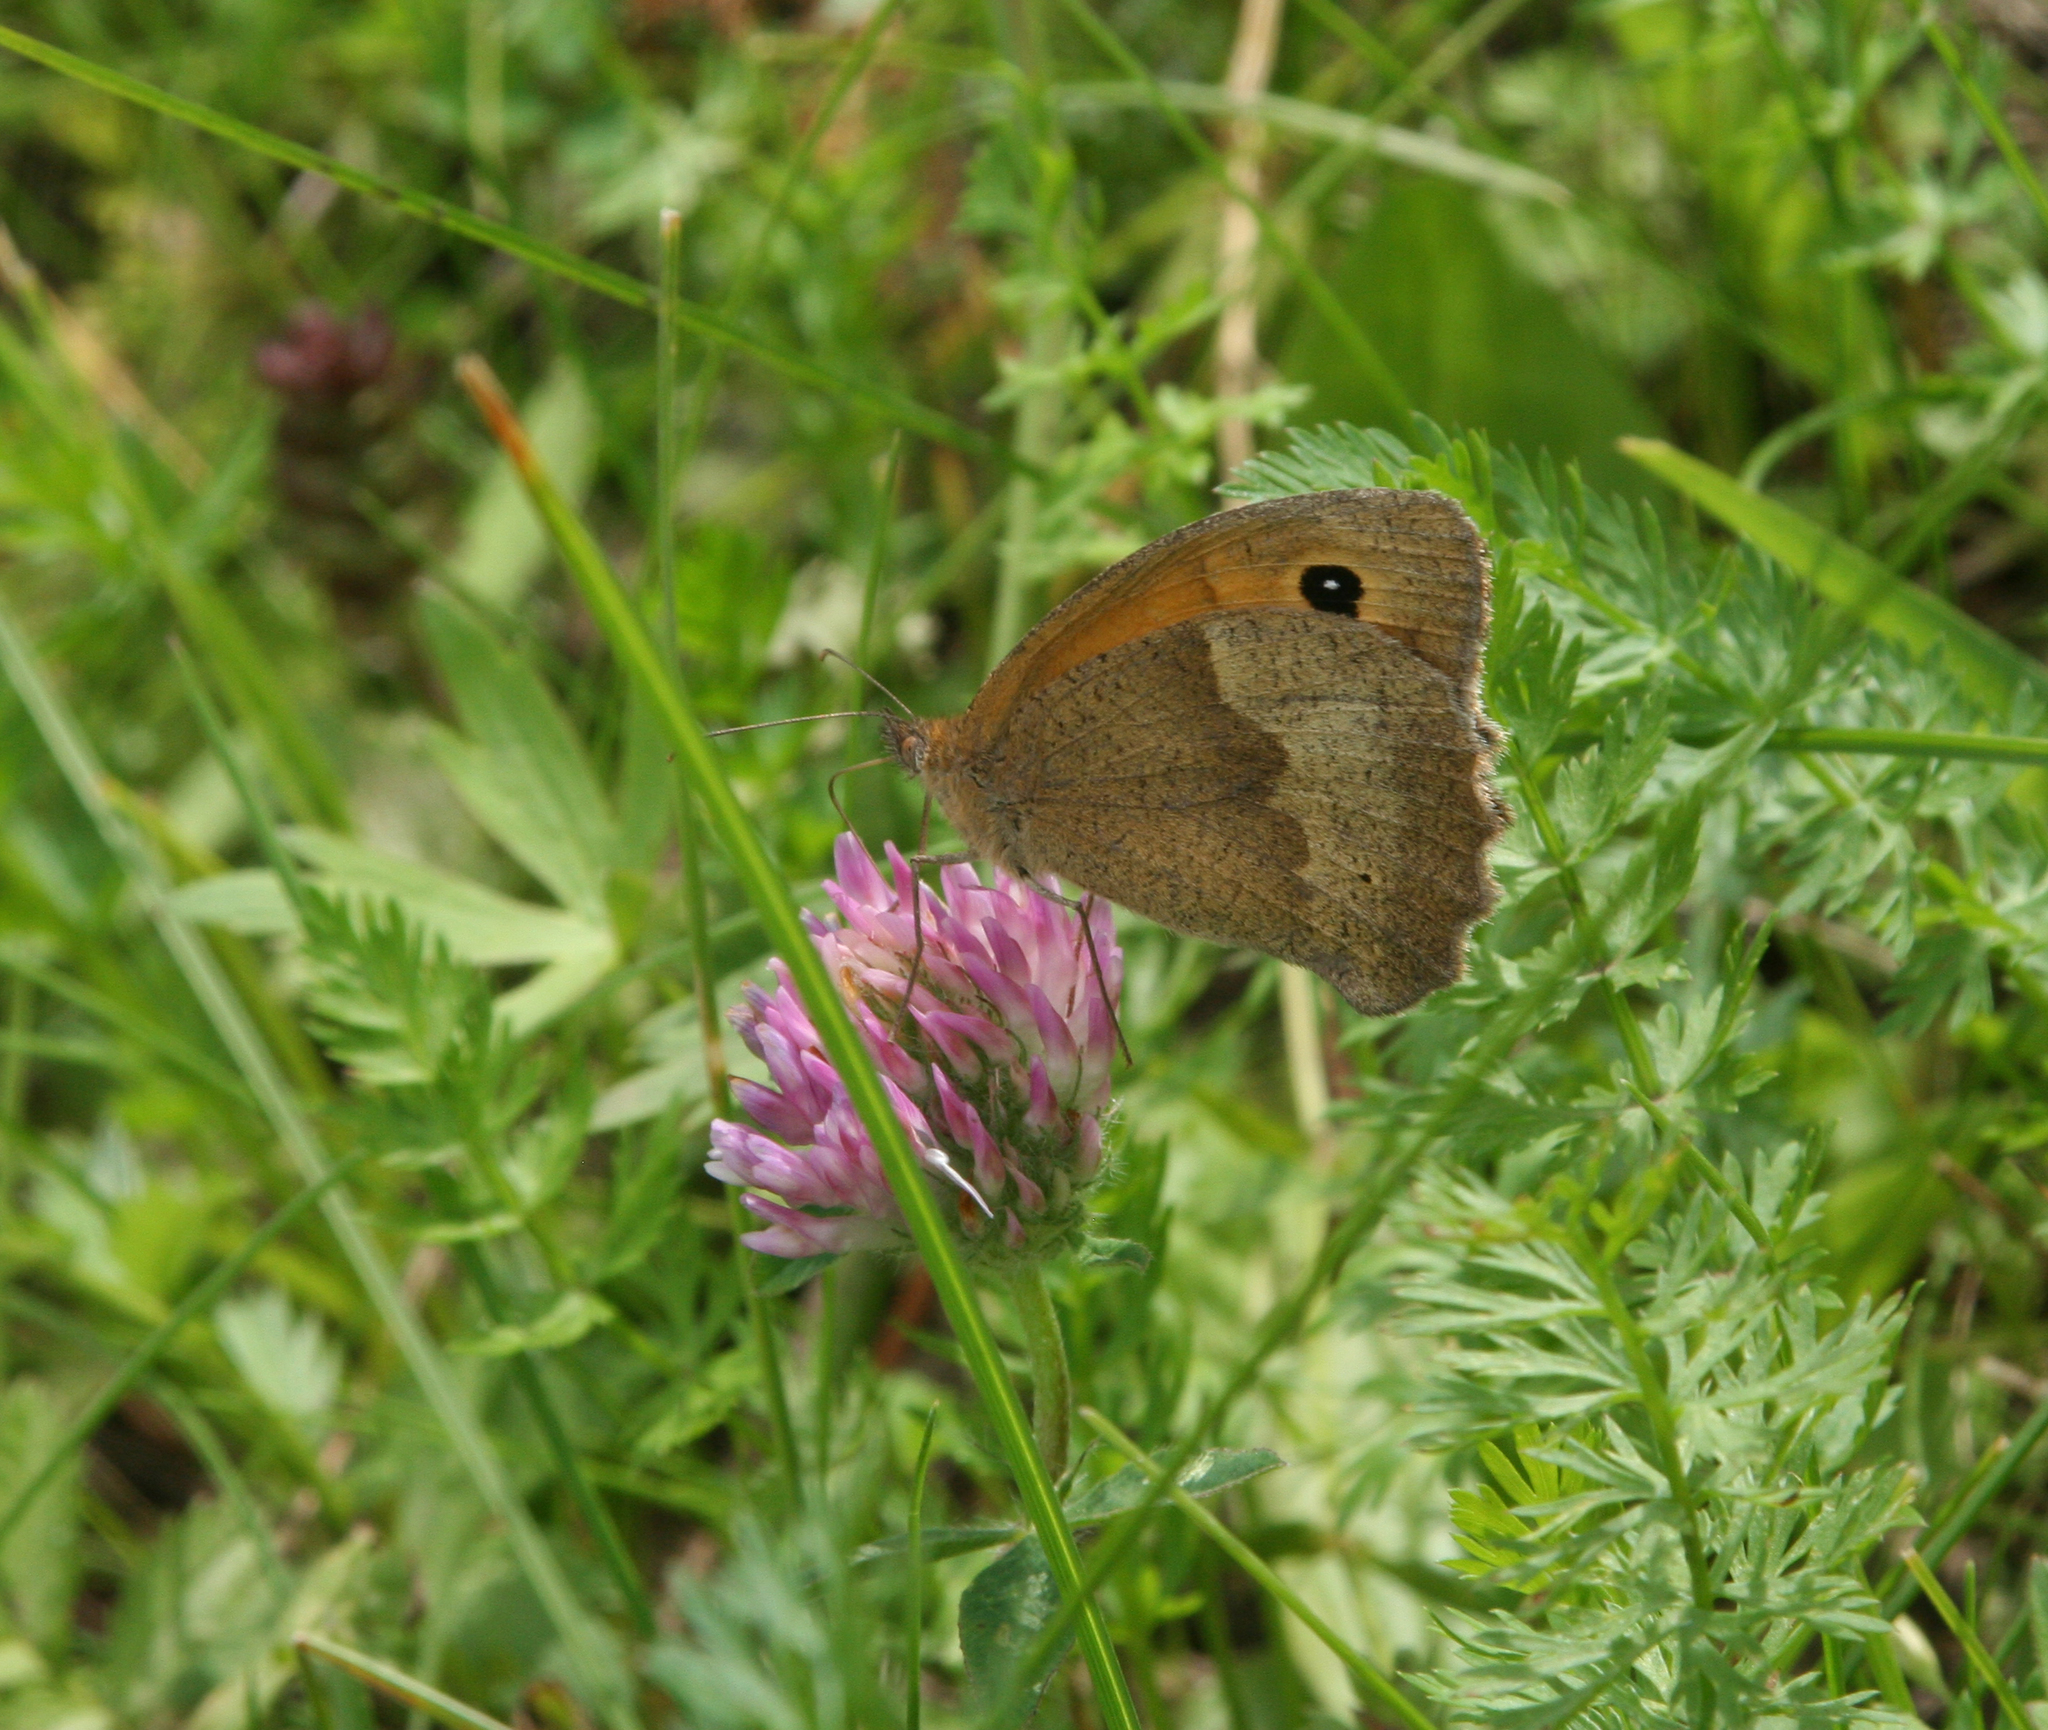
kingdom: Animalia
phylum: Arthropoda
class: Insecta
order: Lepidoptera
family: Nymphalidae
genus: Maniola
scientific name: Maniola jurtina
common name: Meadow brown
